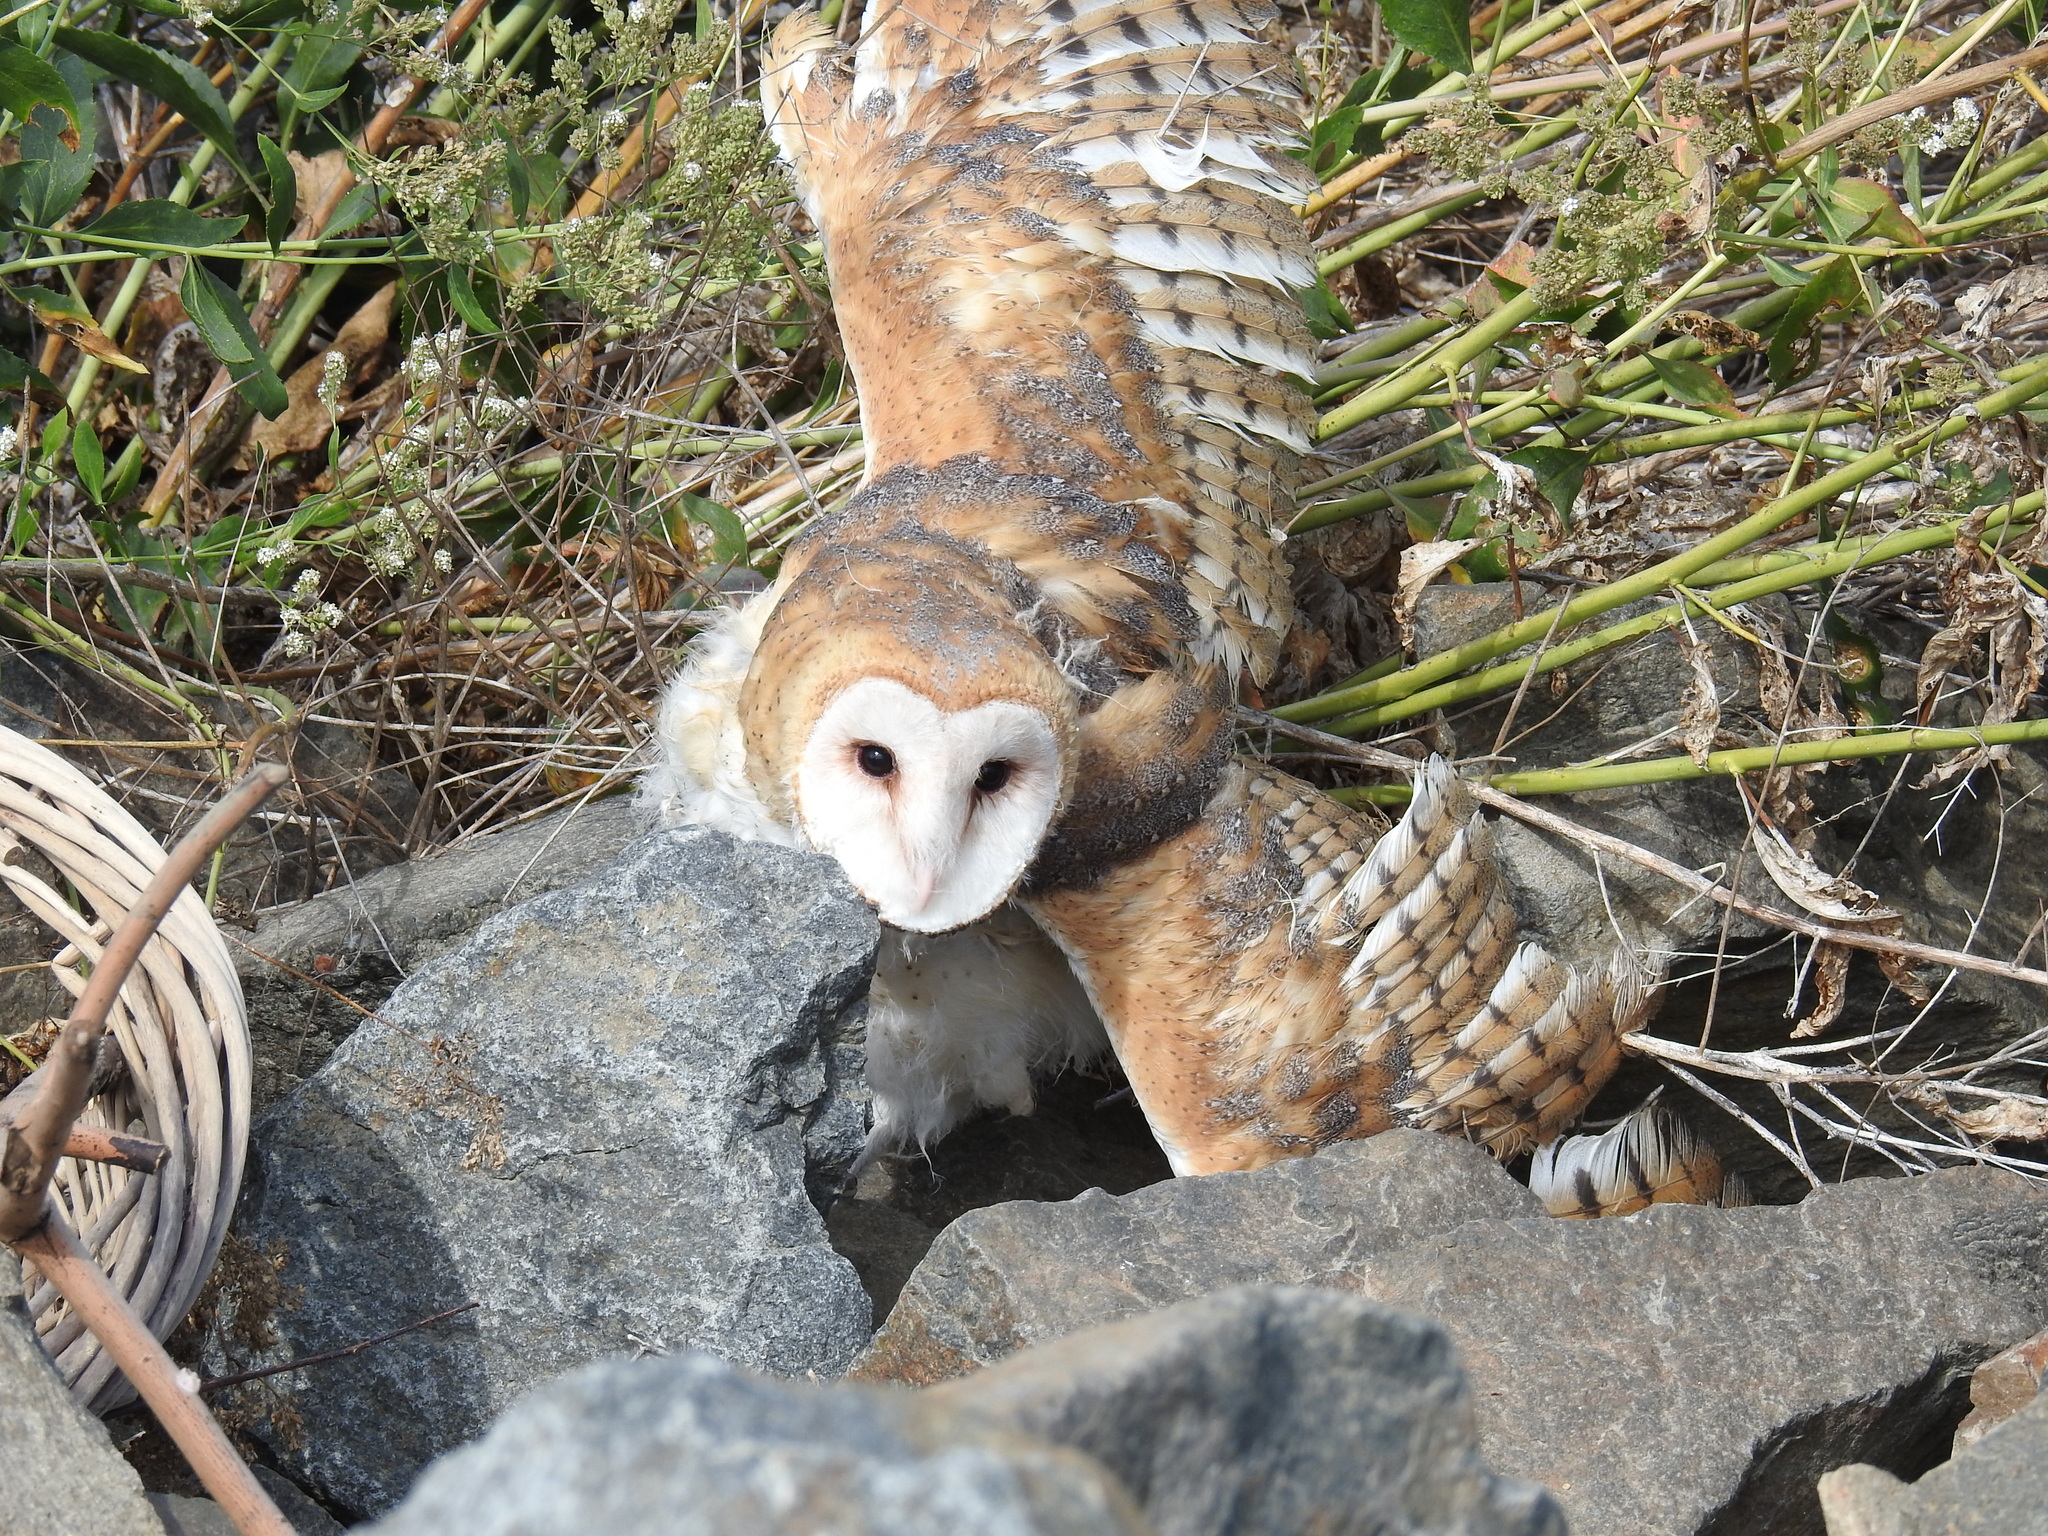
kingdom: Animalia
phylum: Chordata
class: Aves
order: Strigiformes
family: Tytonidae
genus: Tyto
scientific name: Tyto alba
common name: Barn owl
